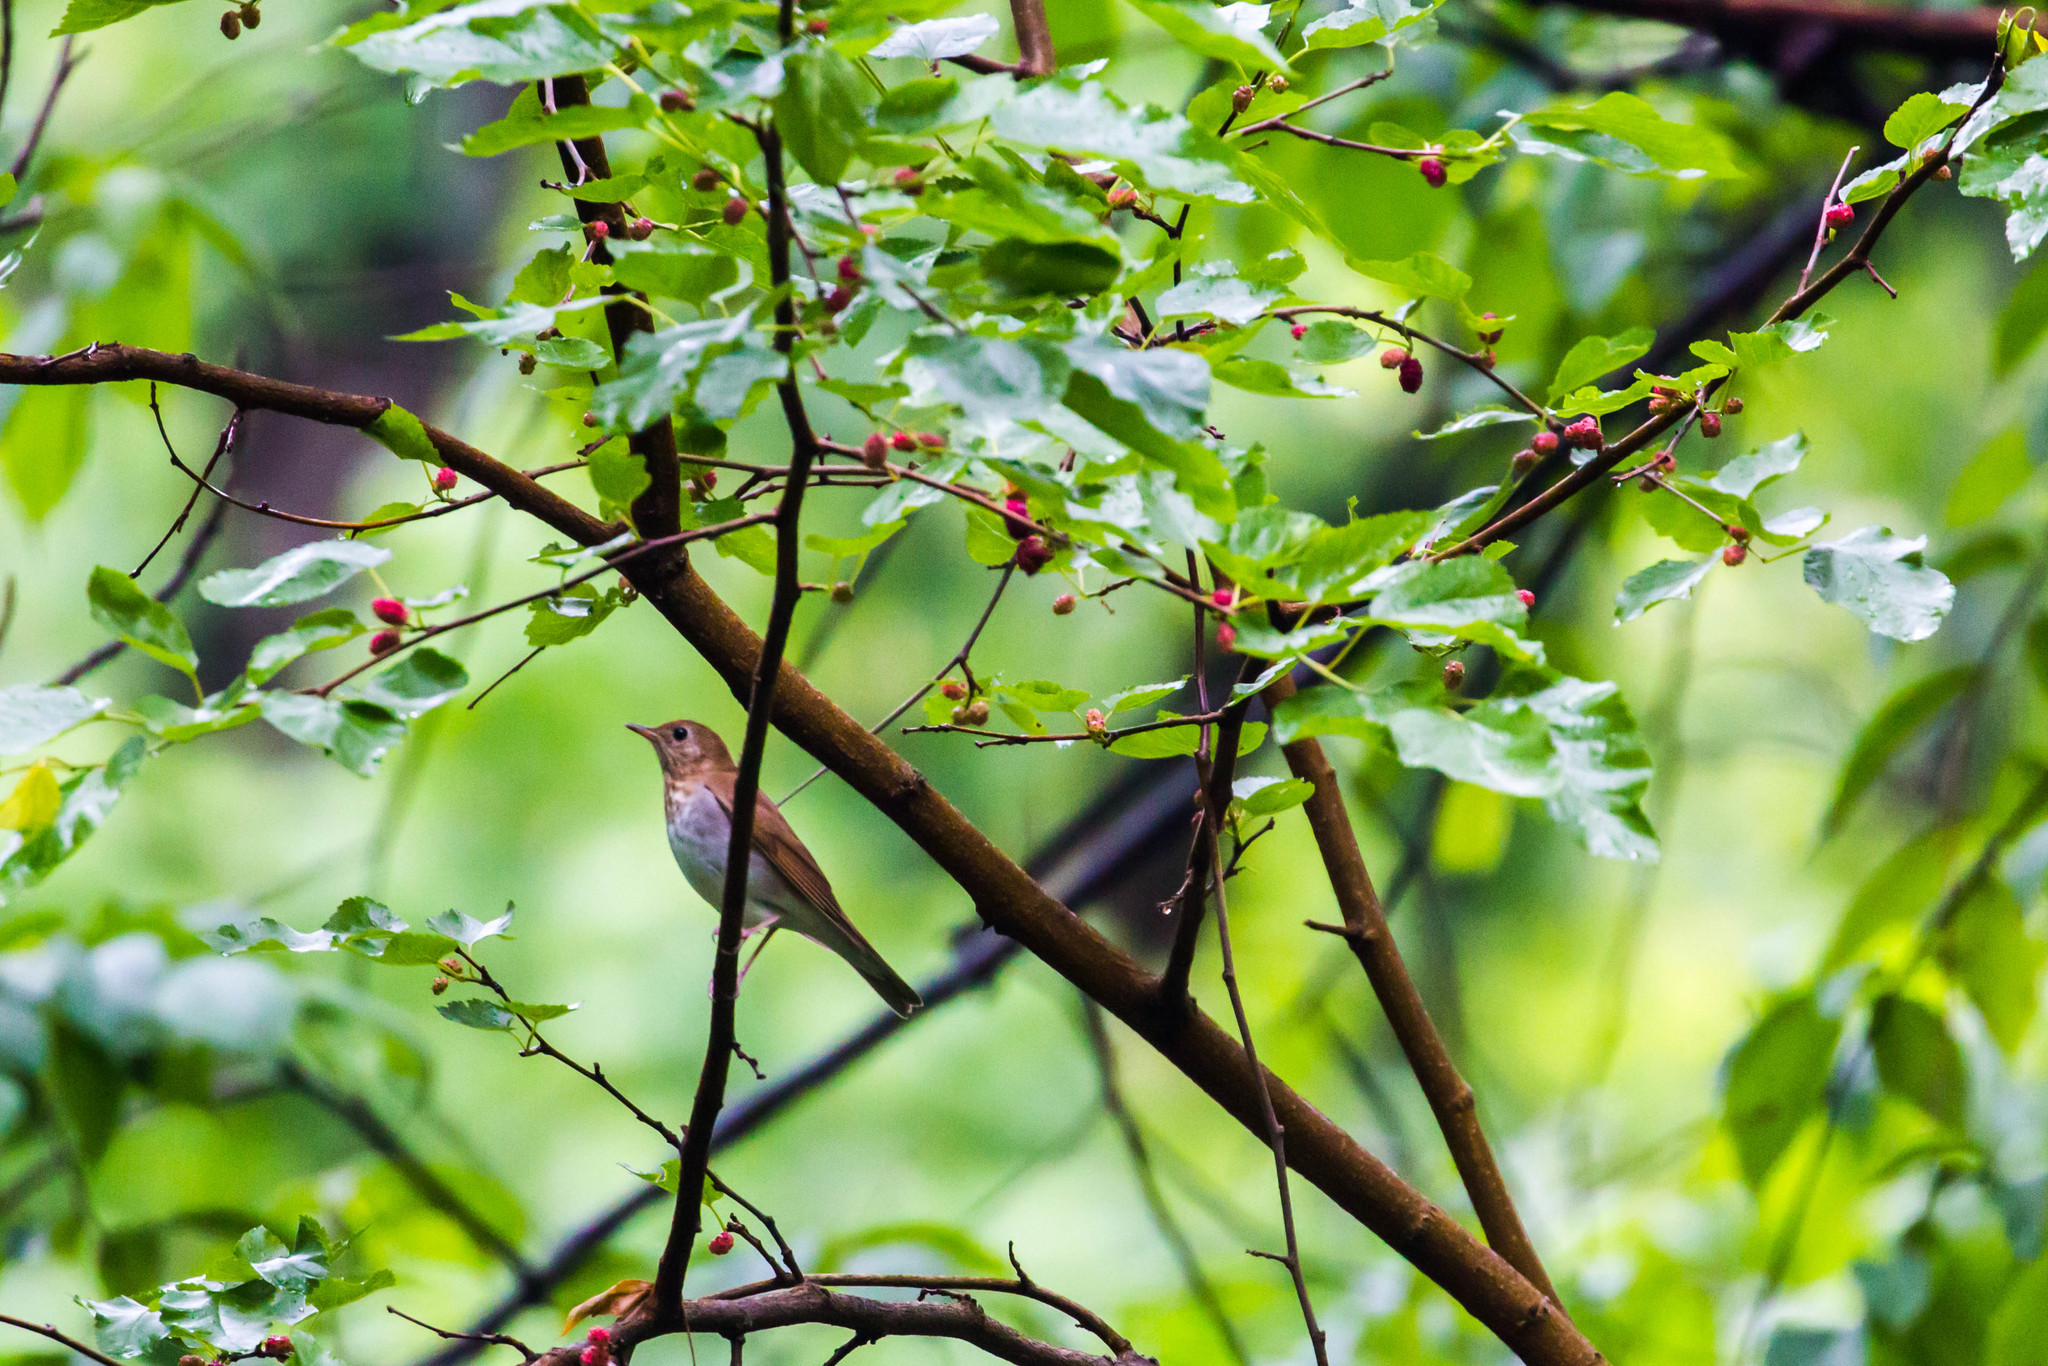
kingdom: Animalia
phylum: Chordata
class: Aves
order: Passeriformes
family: Turdidae
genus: Catharus
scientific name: Catharus fuscescens
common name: Veery
